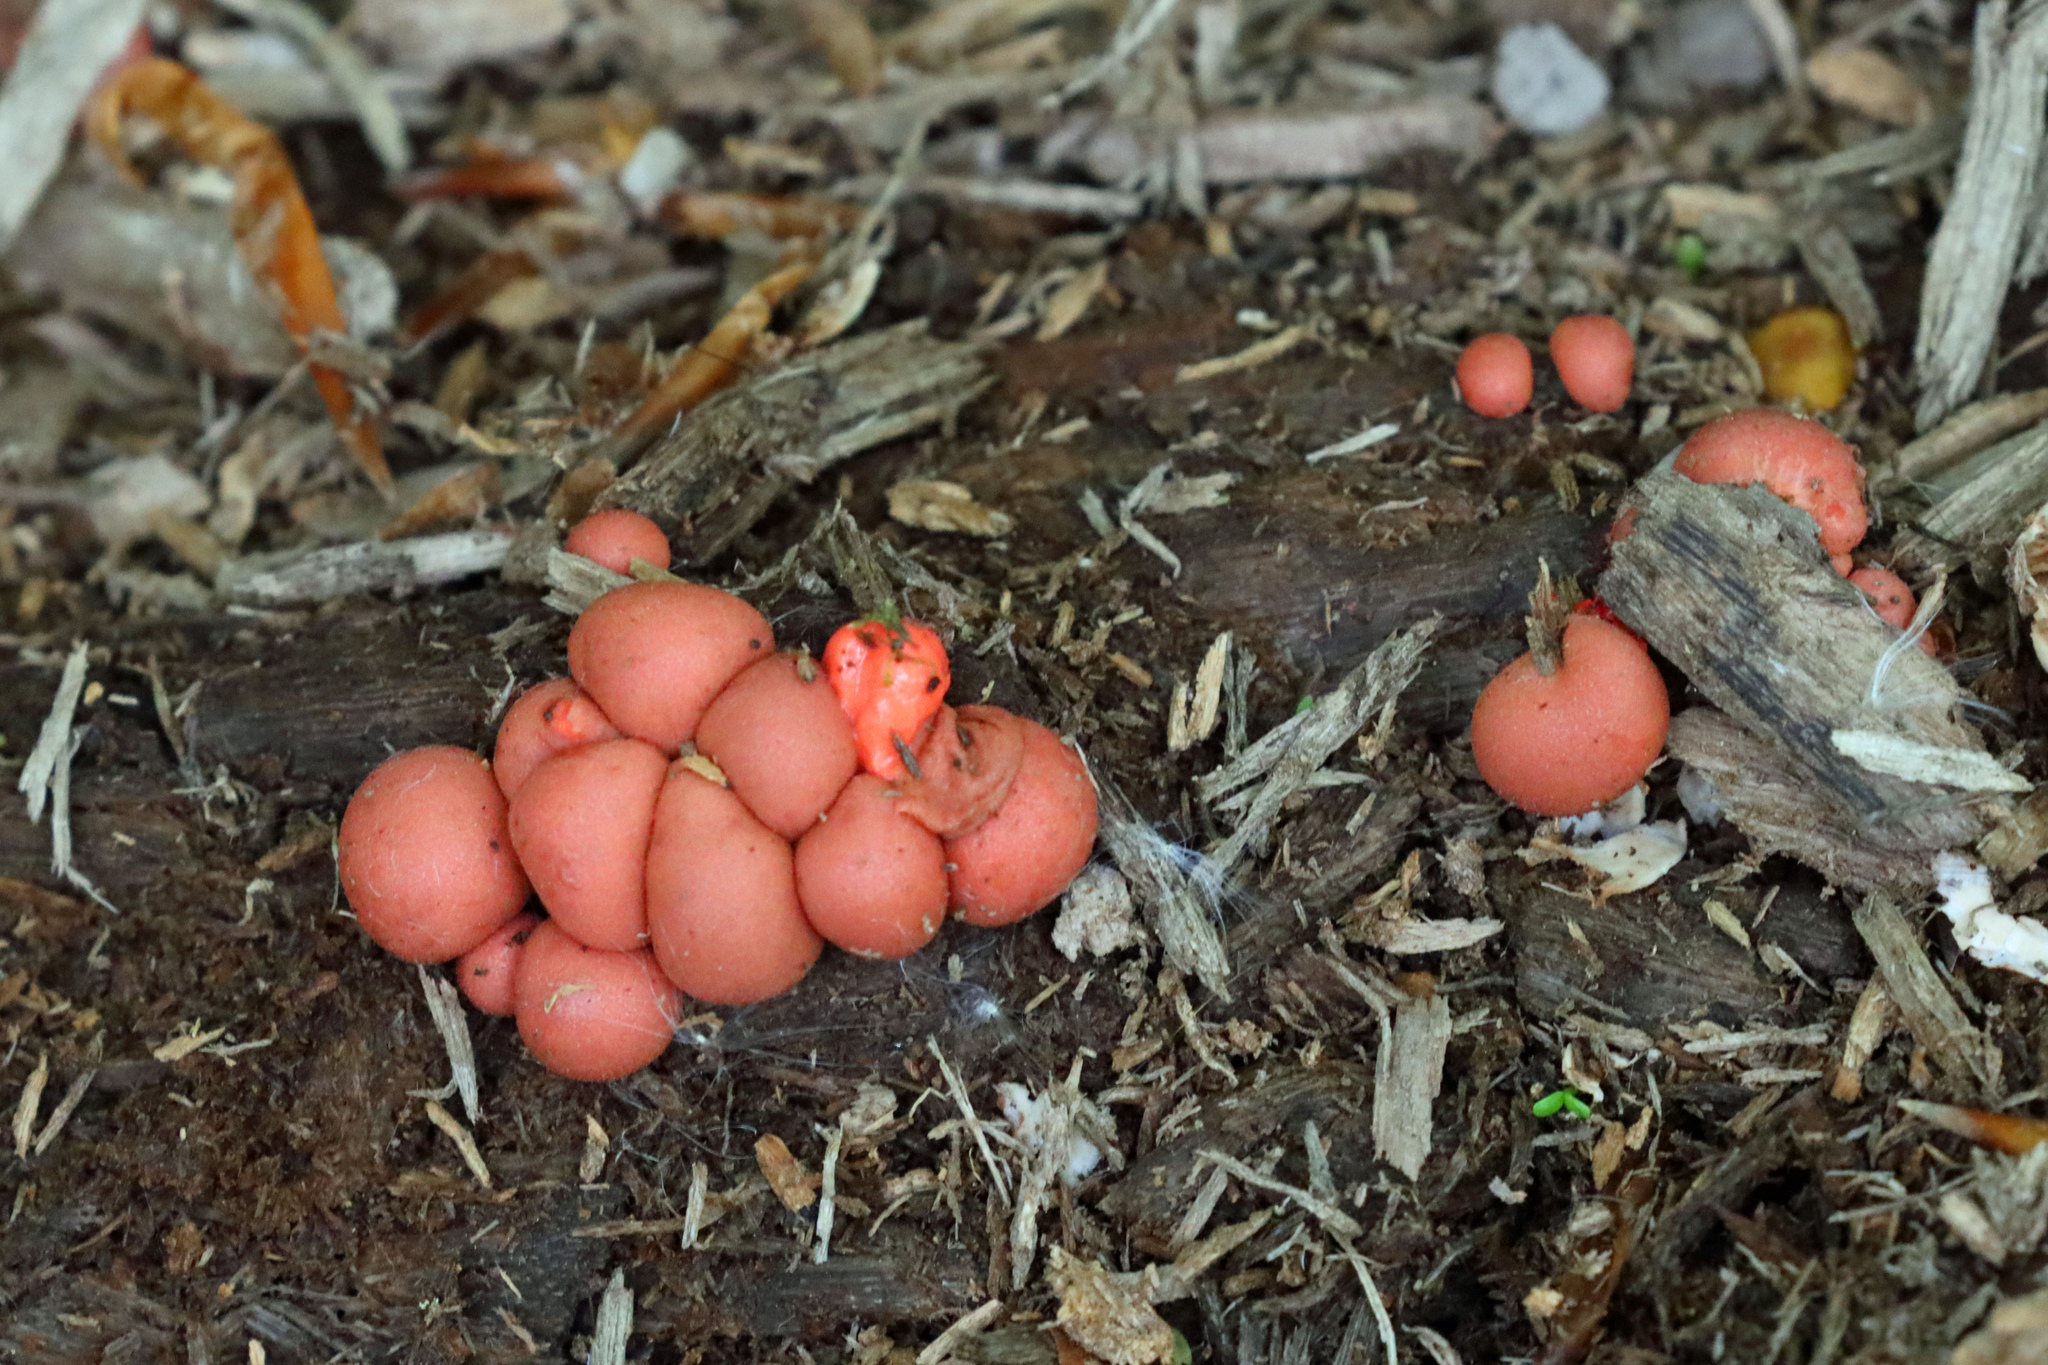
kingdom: Protozoa
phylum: Mycetozoa
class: Myxomycetes
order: Cribrariales
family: Tubiferaceae
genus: Lycogala
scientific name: Lycogala epidendrum
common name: Wolf's milk
